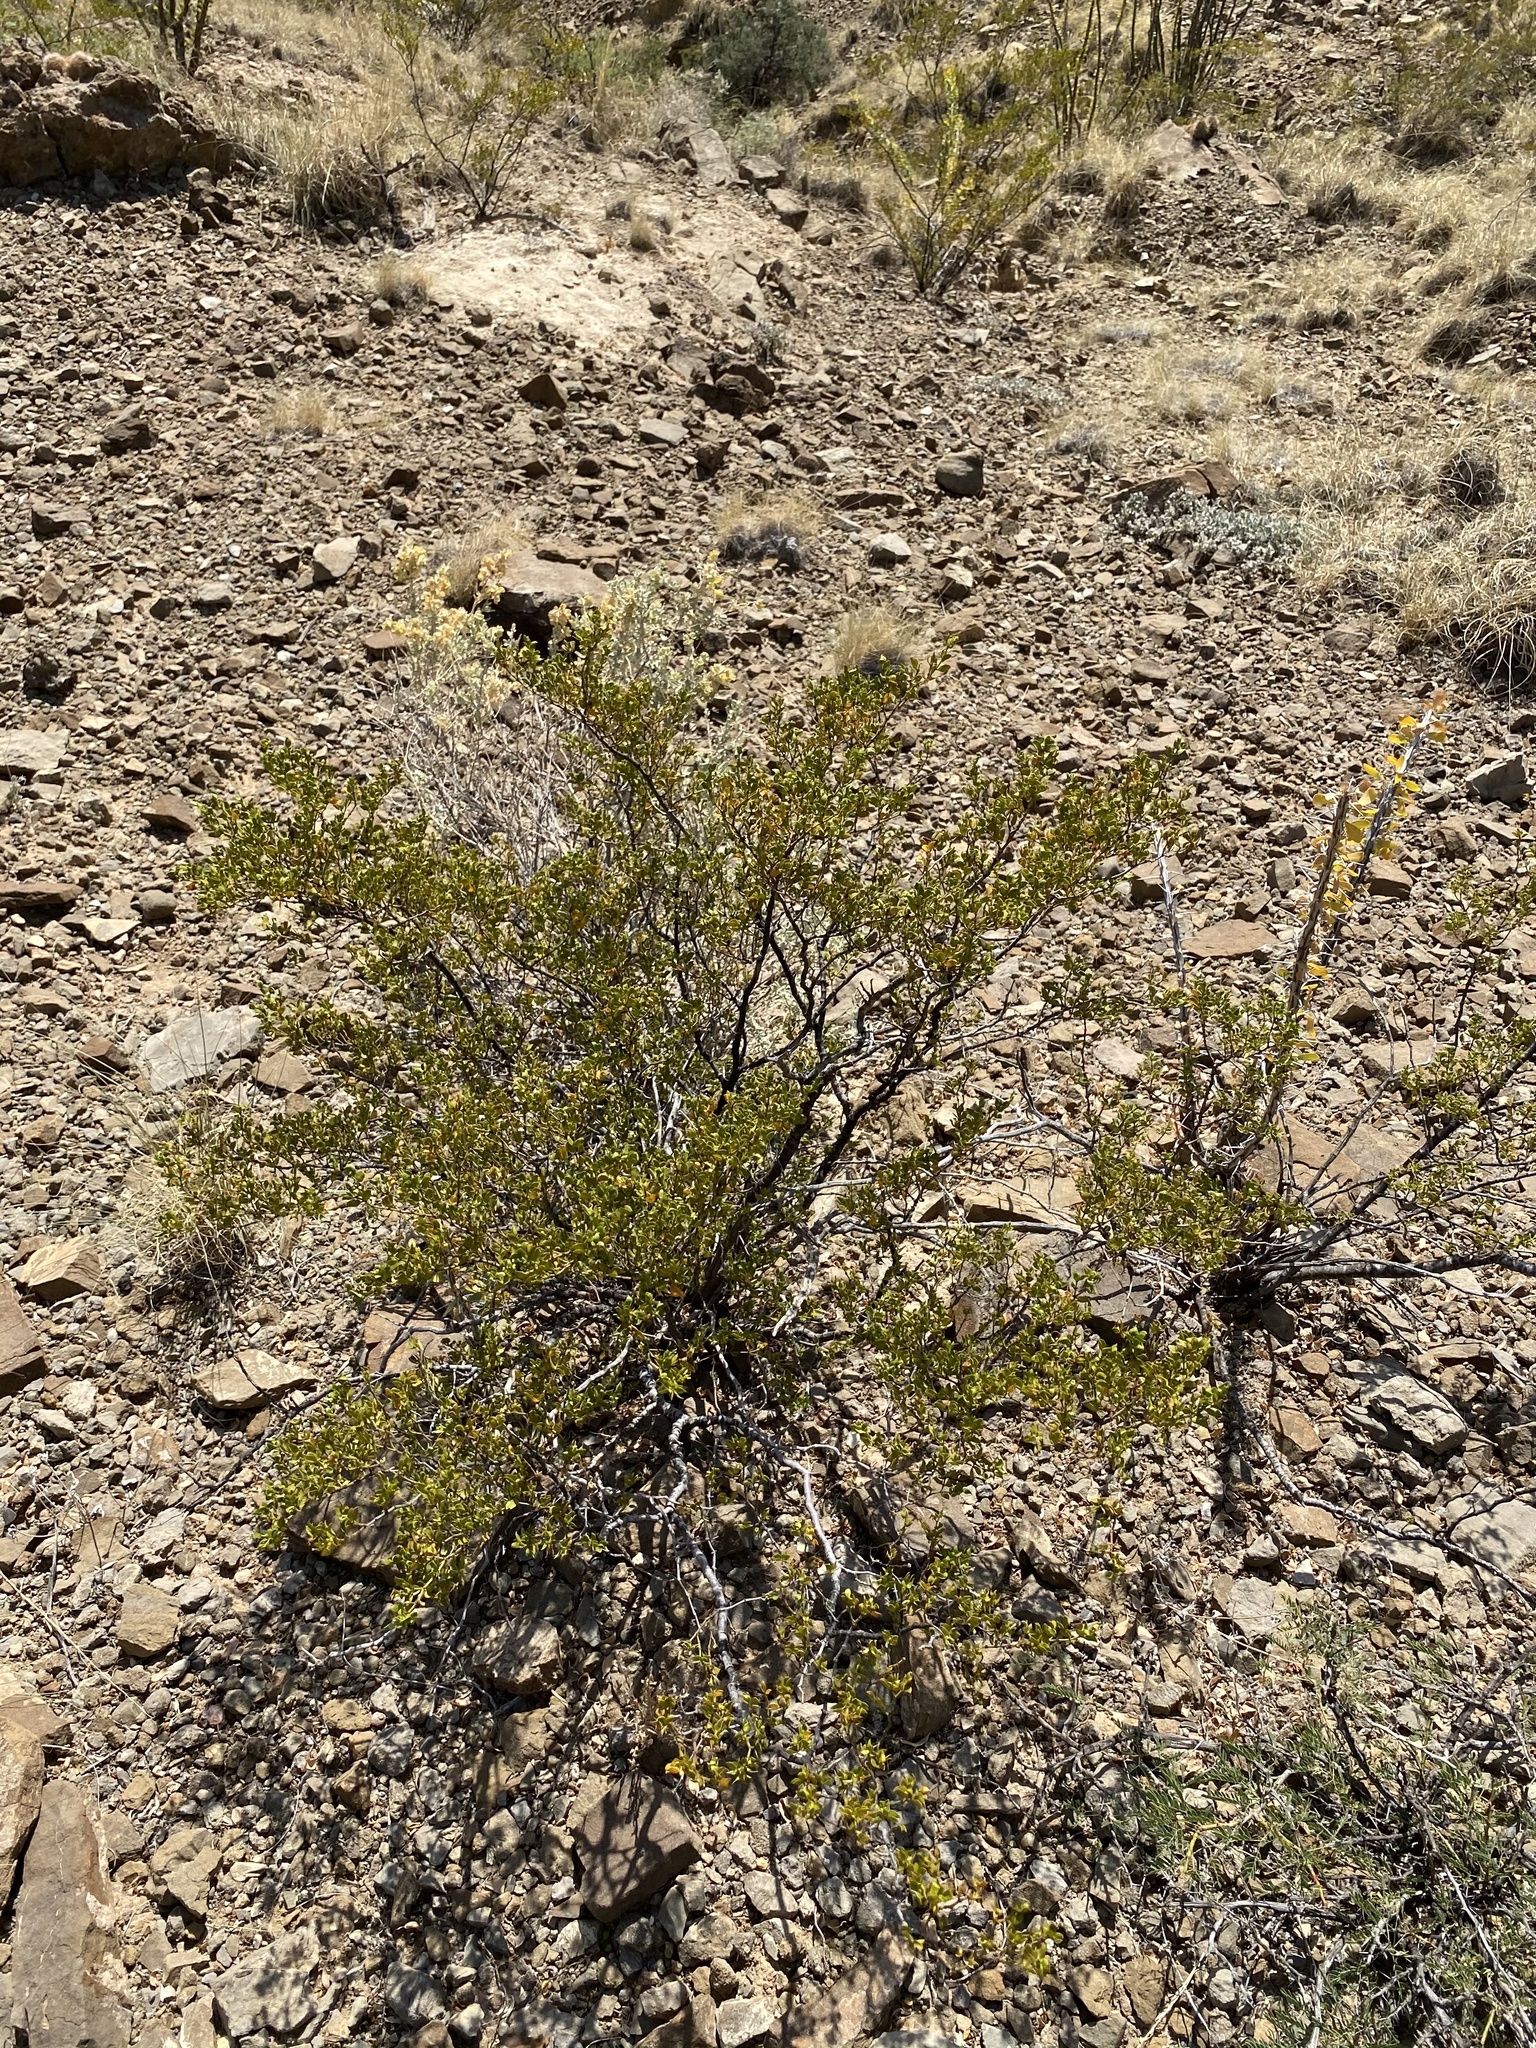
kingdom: Plantae
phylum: Tracheophyta
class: Magnoliopsida
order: Zygophyllales
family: Zygophyllaceae
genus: Larrea
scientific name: Larrea tridentata
